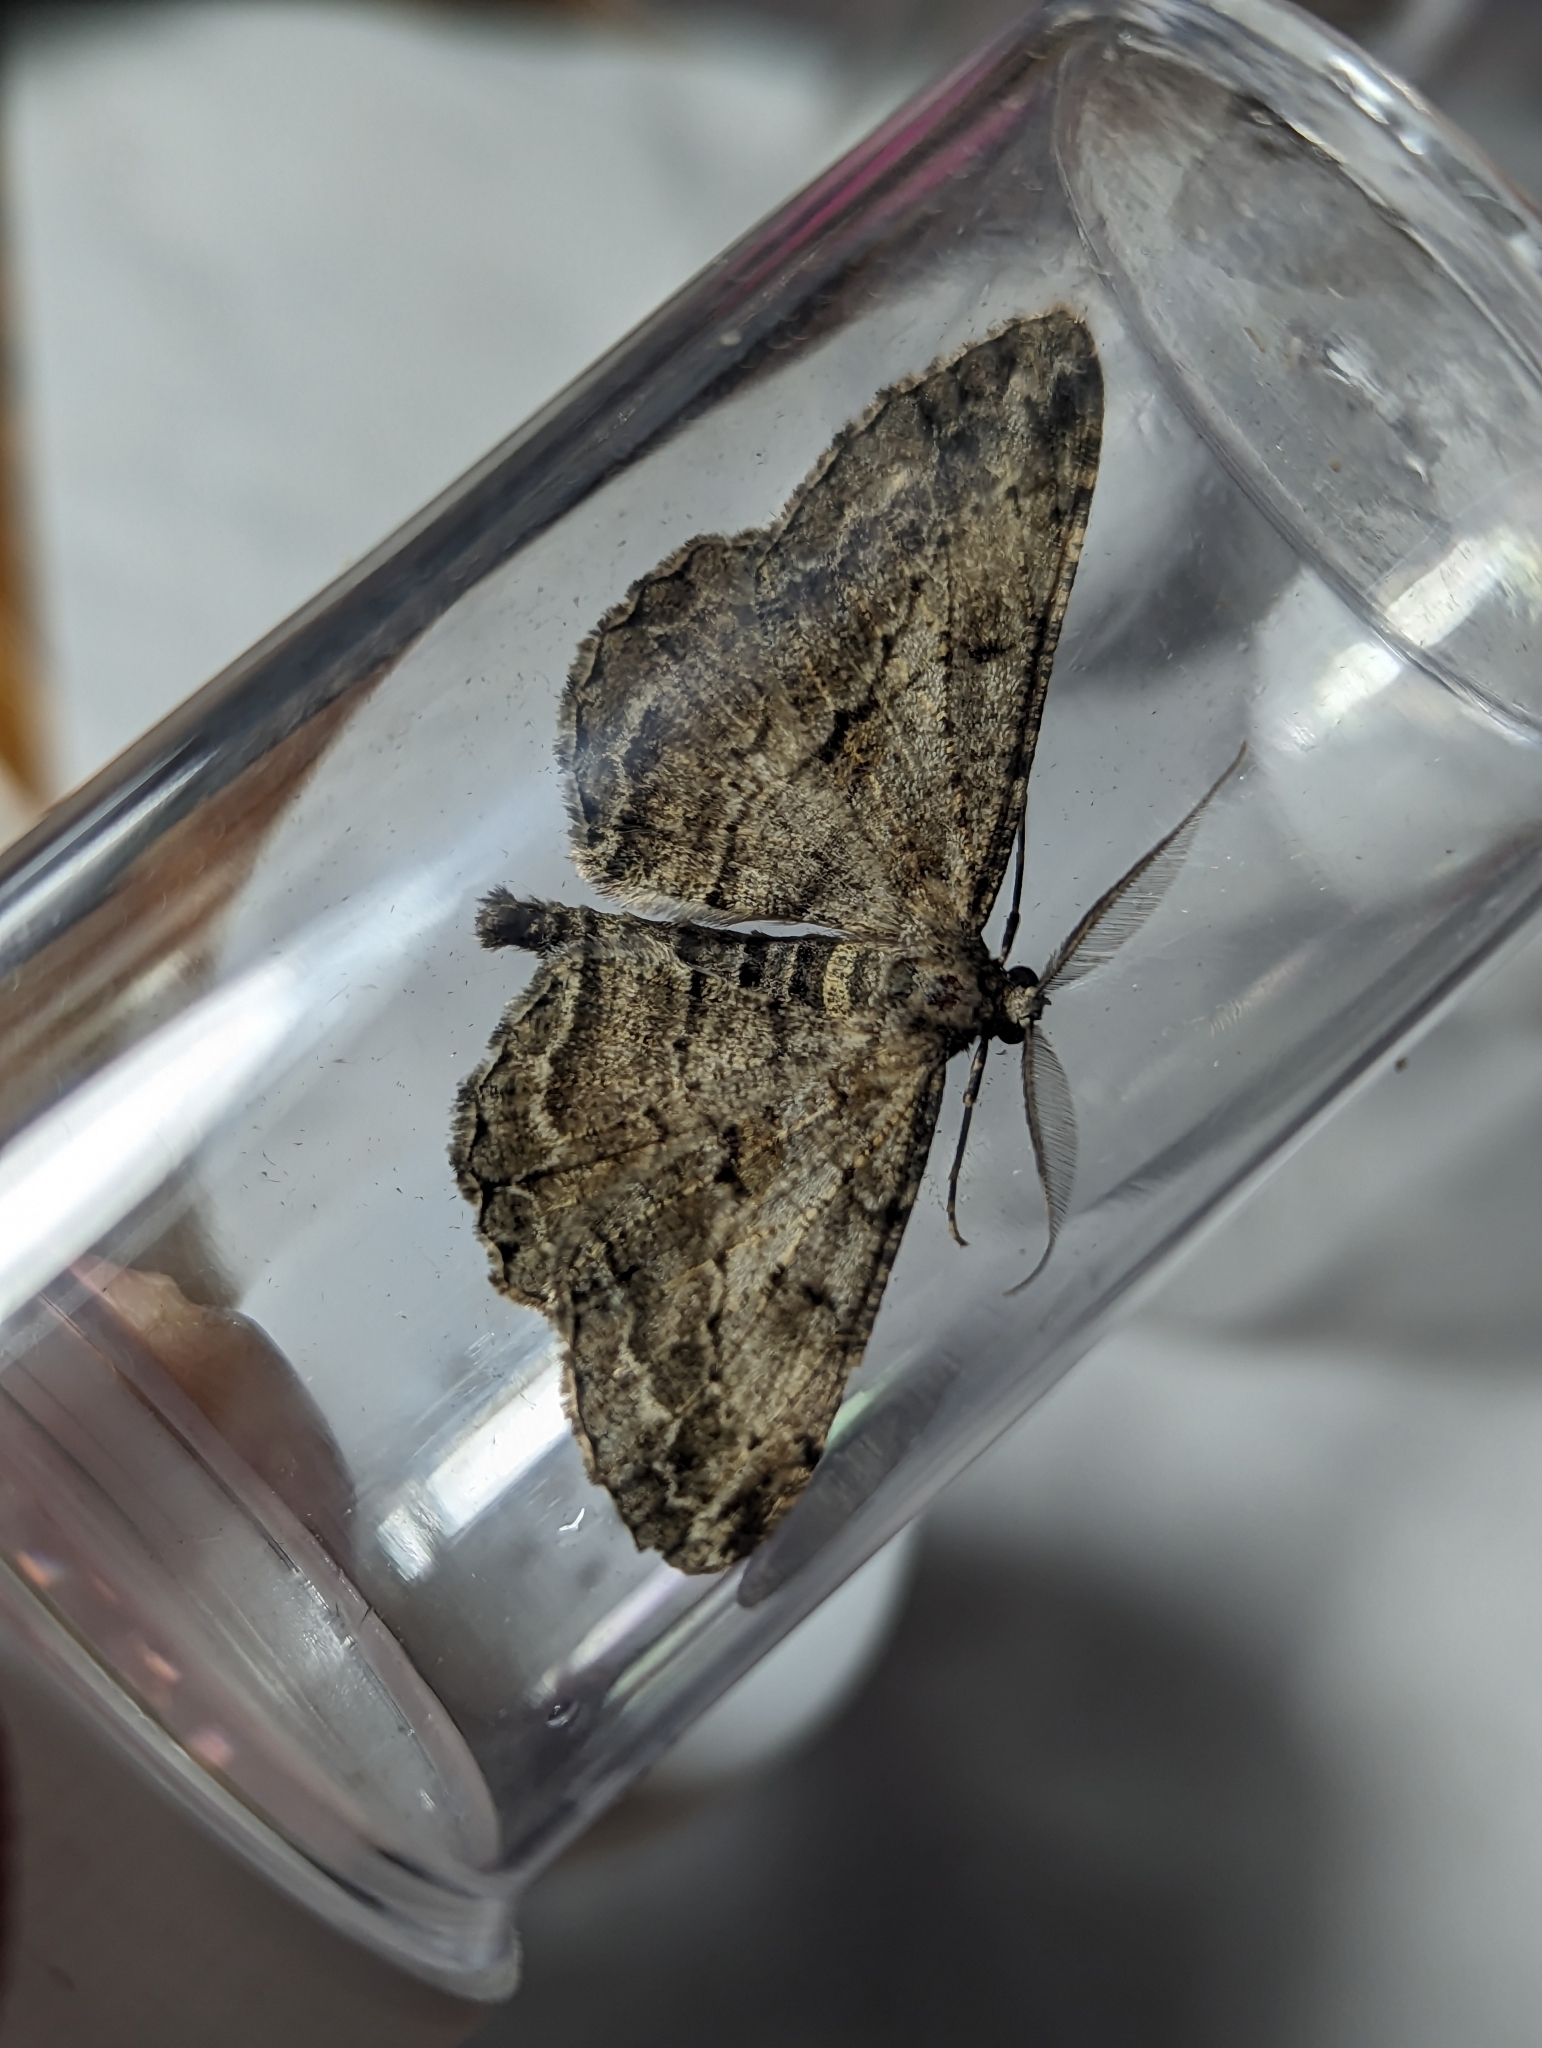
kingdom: Animalia
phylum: Arthropoda
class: Insecta
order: Lepidoptera
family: Geometridae
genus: Peribatodes
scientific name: Peribatodes rhomboidaria
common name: Willow beauty
